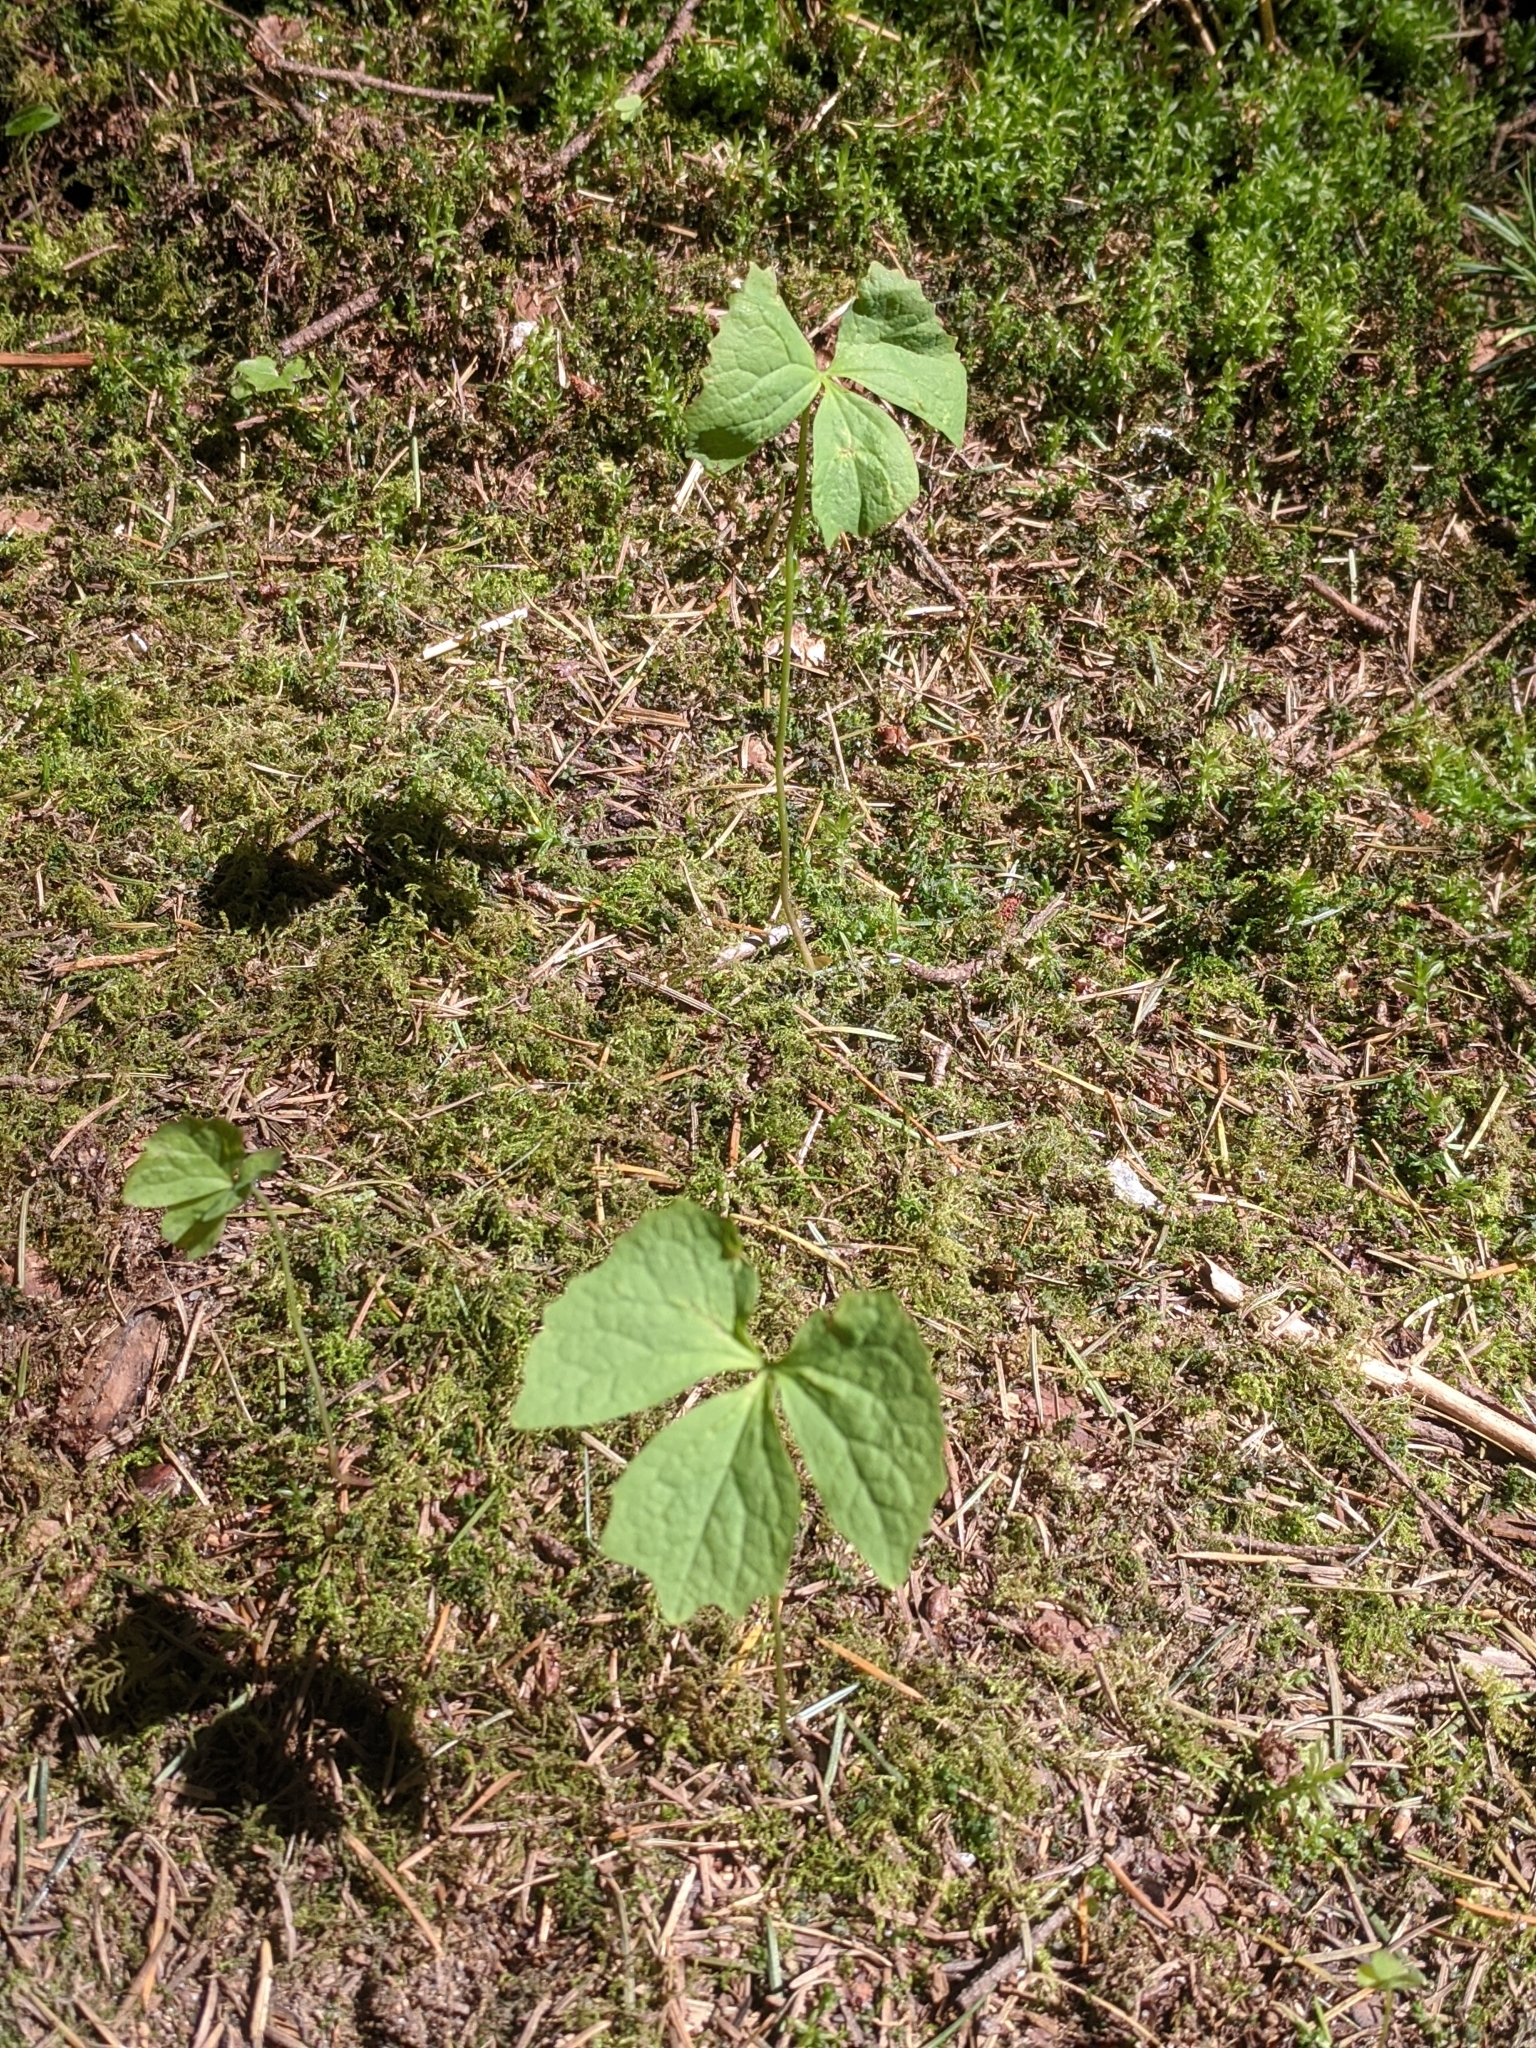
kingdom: Plantae
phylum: Tracheophyta
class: Magnoliopsida
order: Ranunculales
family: Berberidaceae
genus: Achlys
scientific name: Achlys triphylla
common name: Vanilla-leaf
